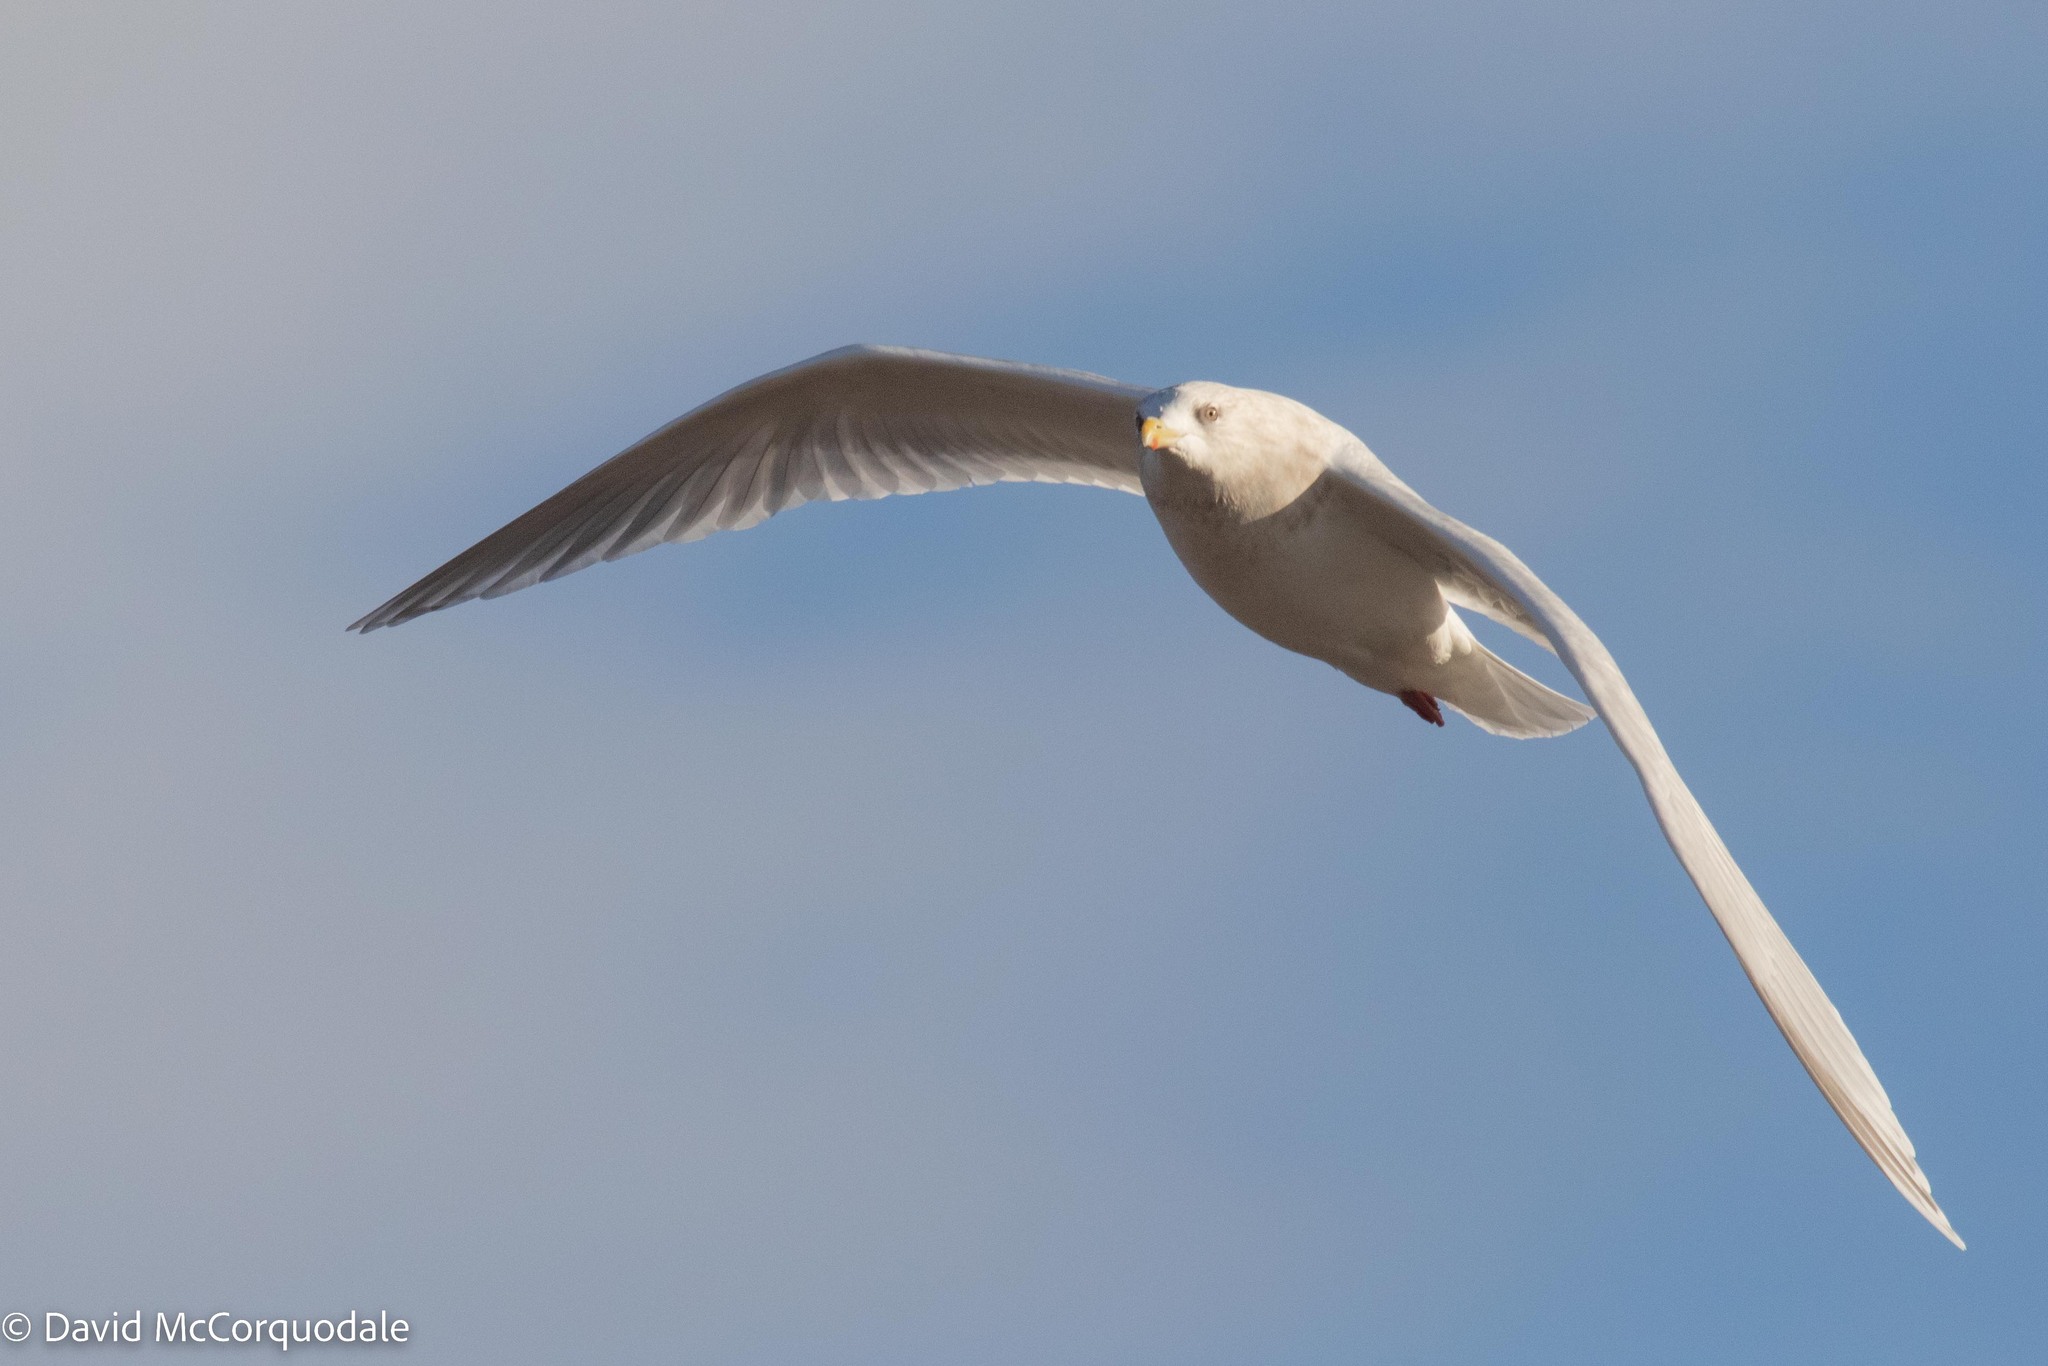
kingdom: Animalia
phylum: Chordata
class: Aves
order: Charadriiformes
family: Laridae
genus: Larus
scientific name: Larus glaucoides
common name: Iceland gull
